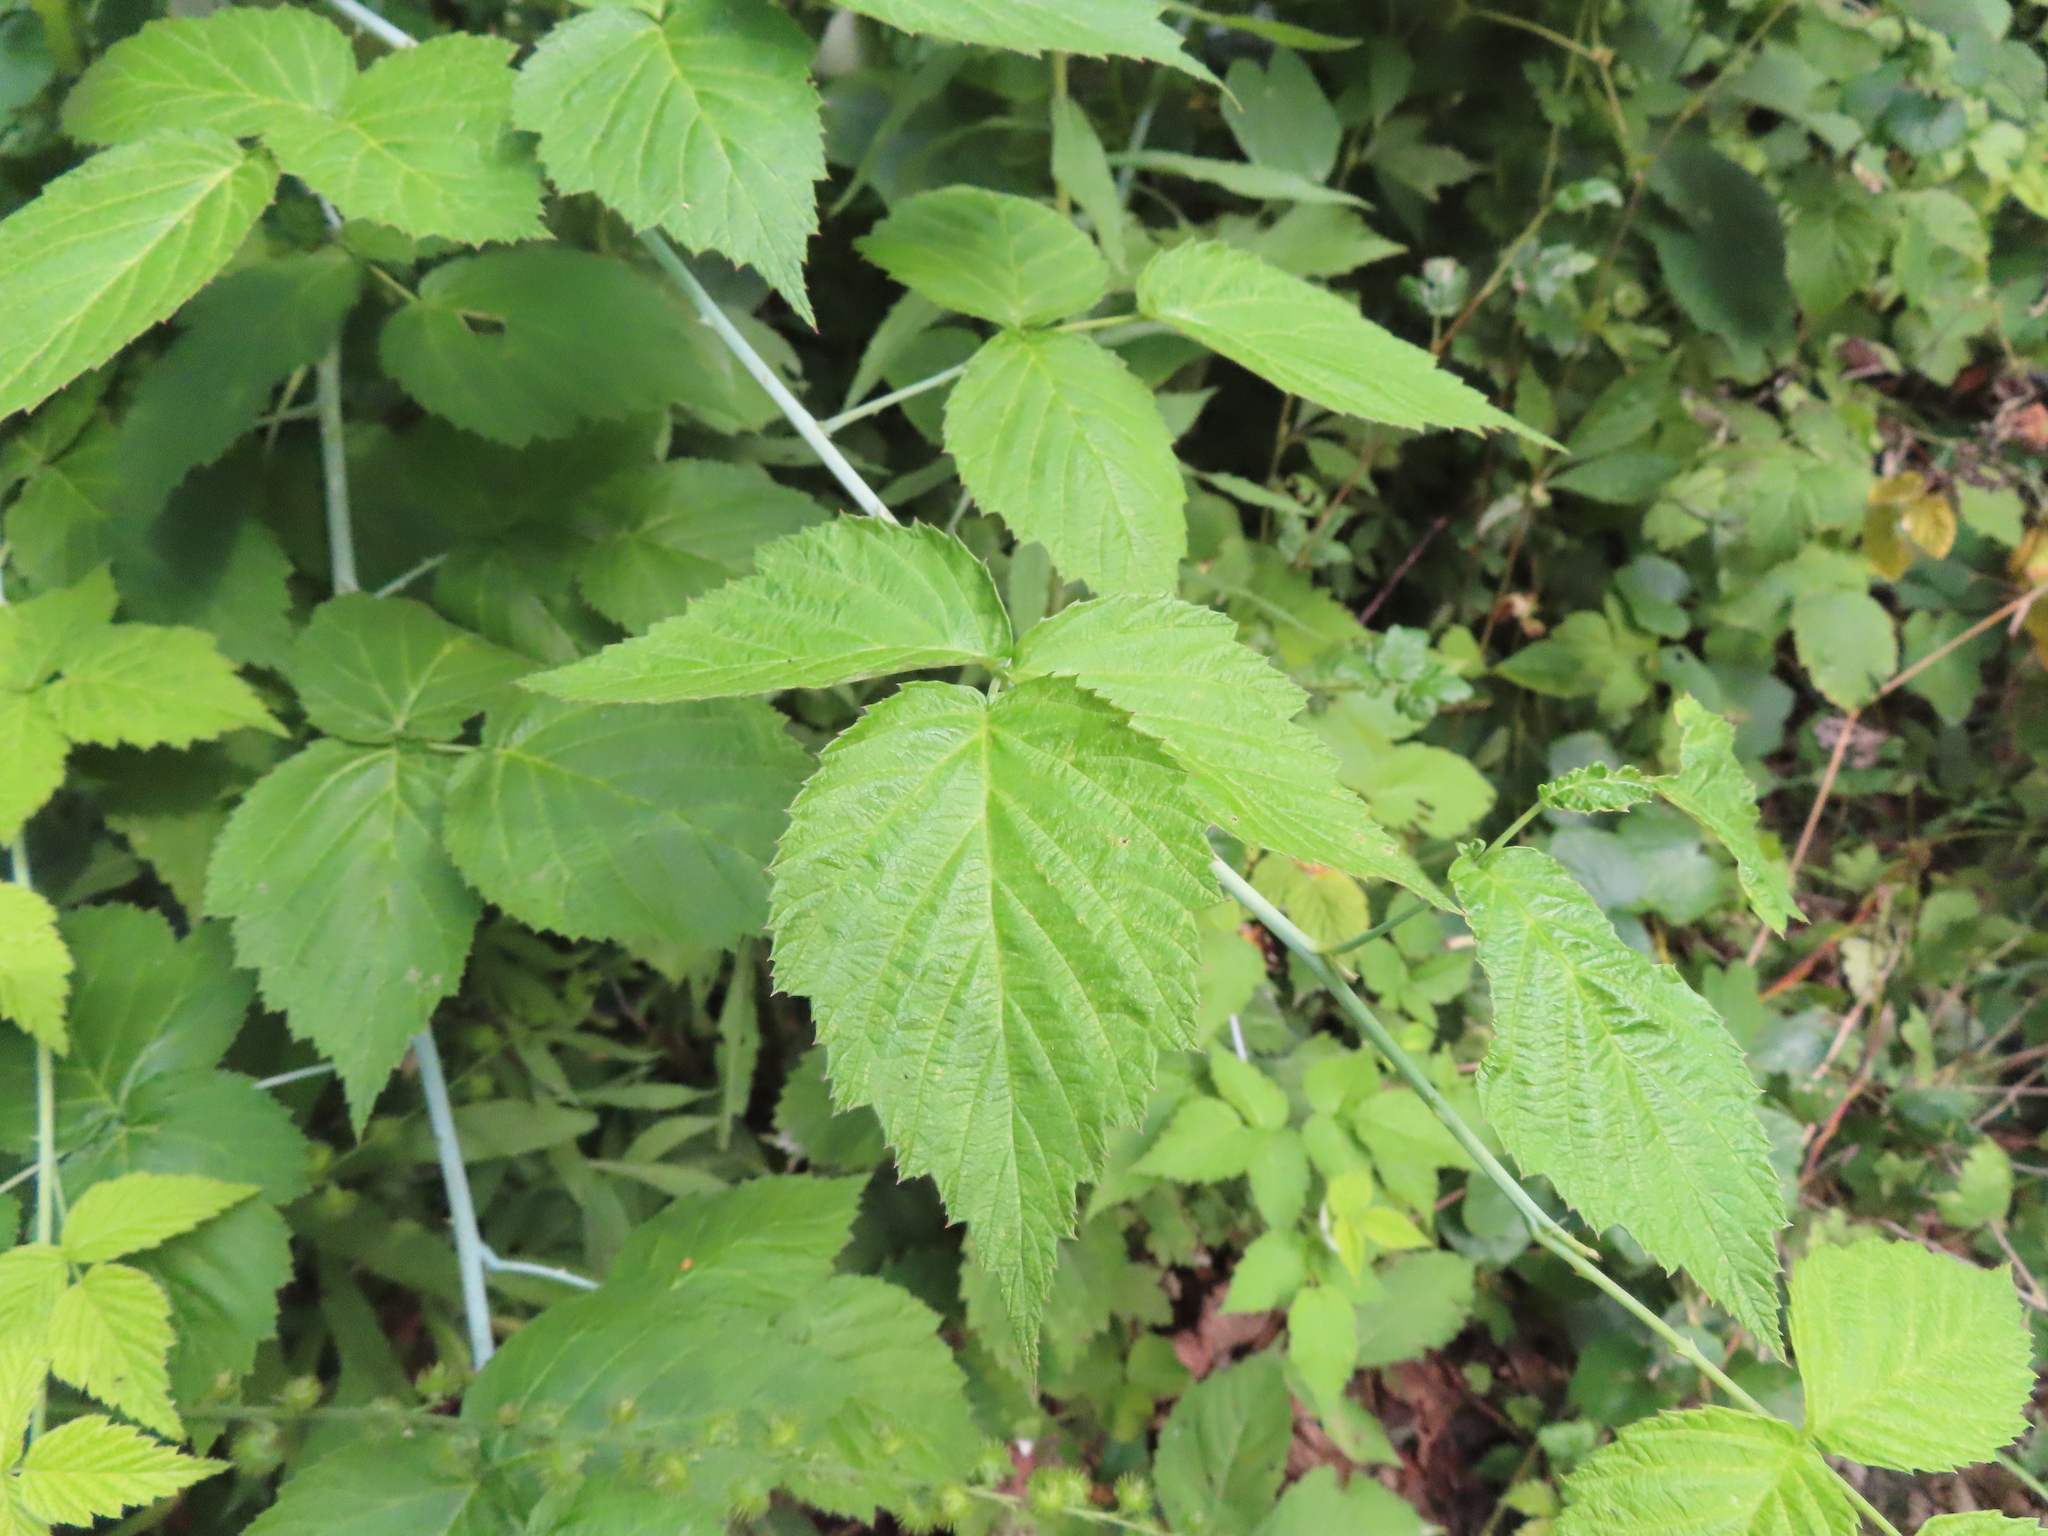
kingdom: Plantae
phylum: Tracheophyta
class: Magnoliopsida
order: Rosales
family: Rosaceae
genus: Rubus
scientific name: Rubus occidentalis
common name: Black raspberry
